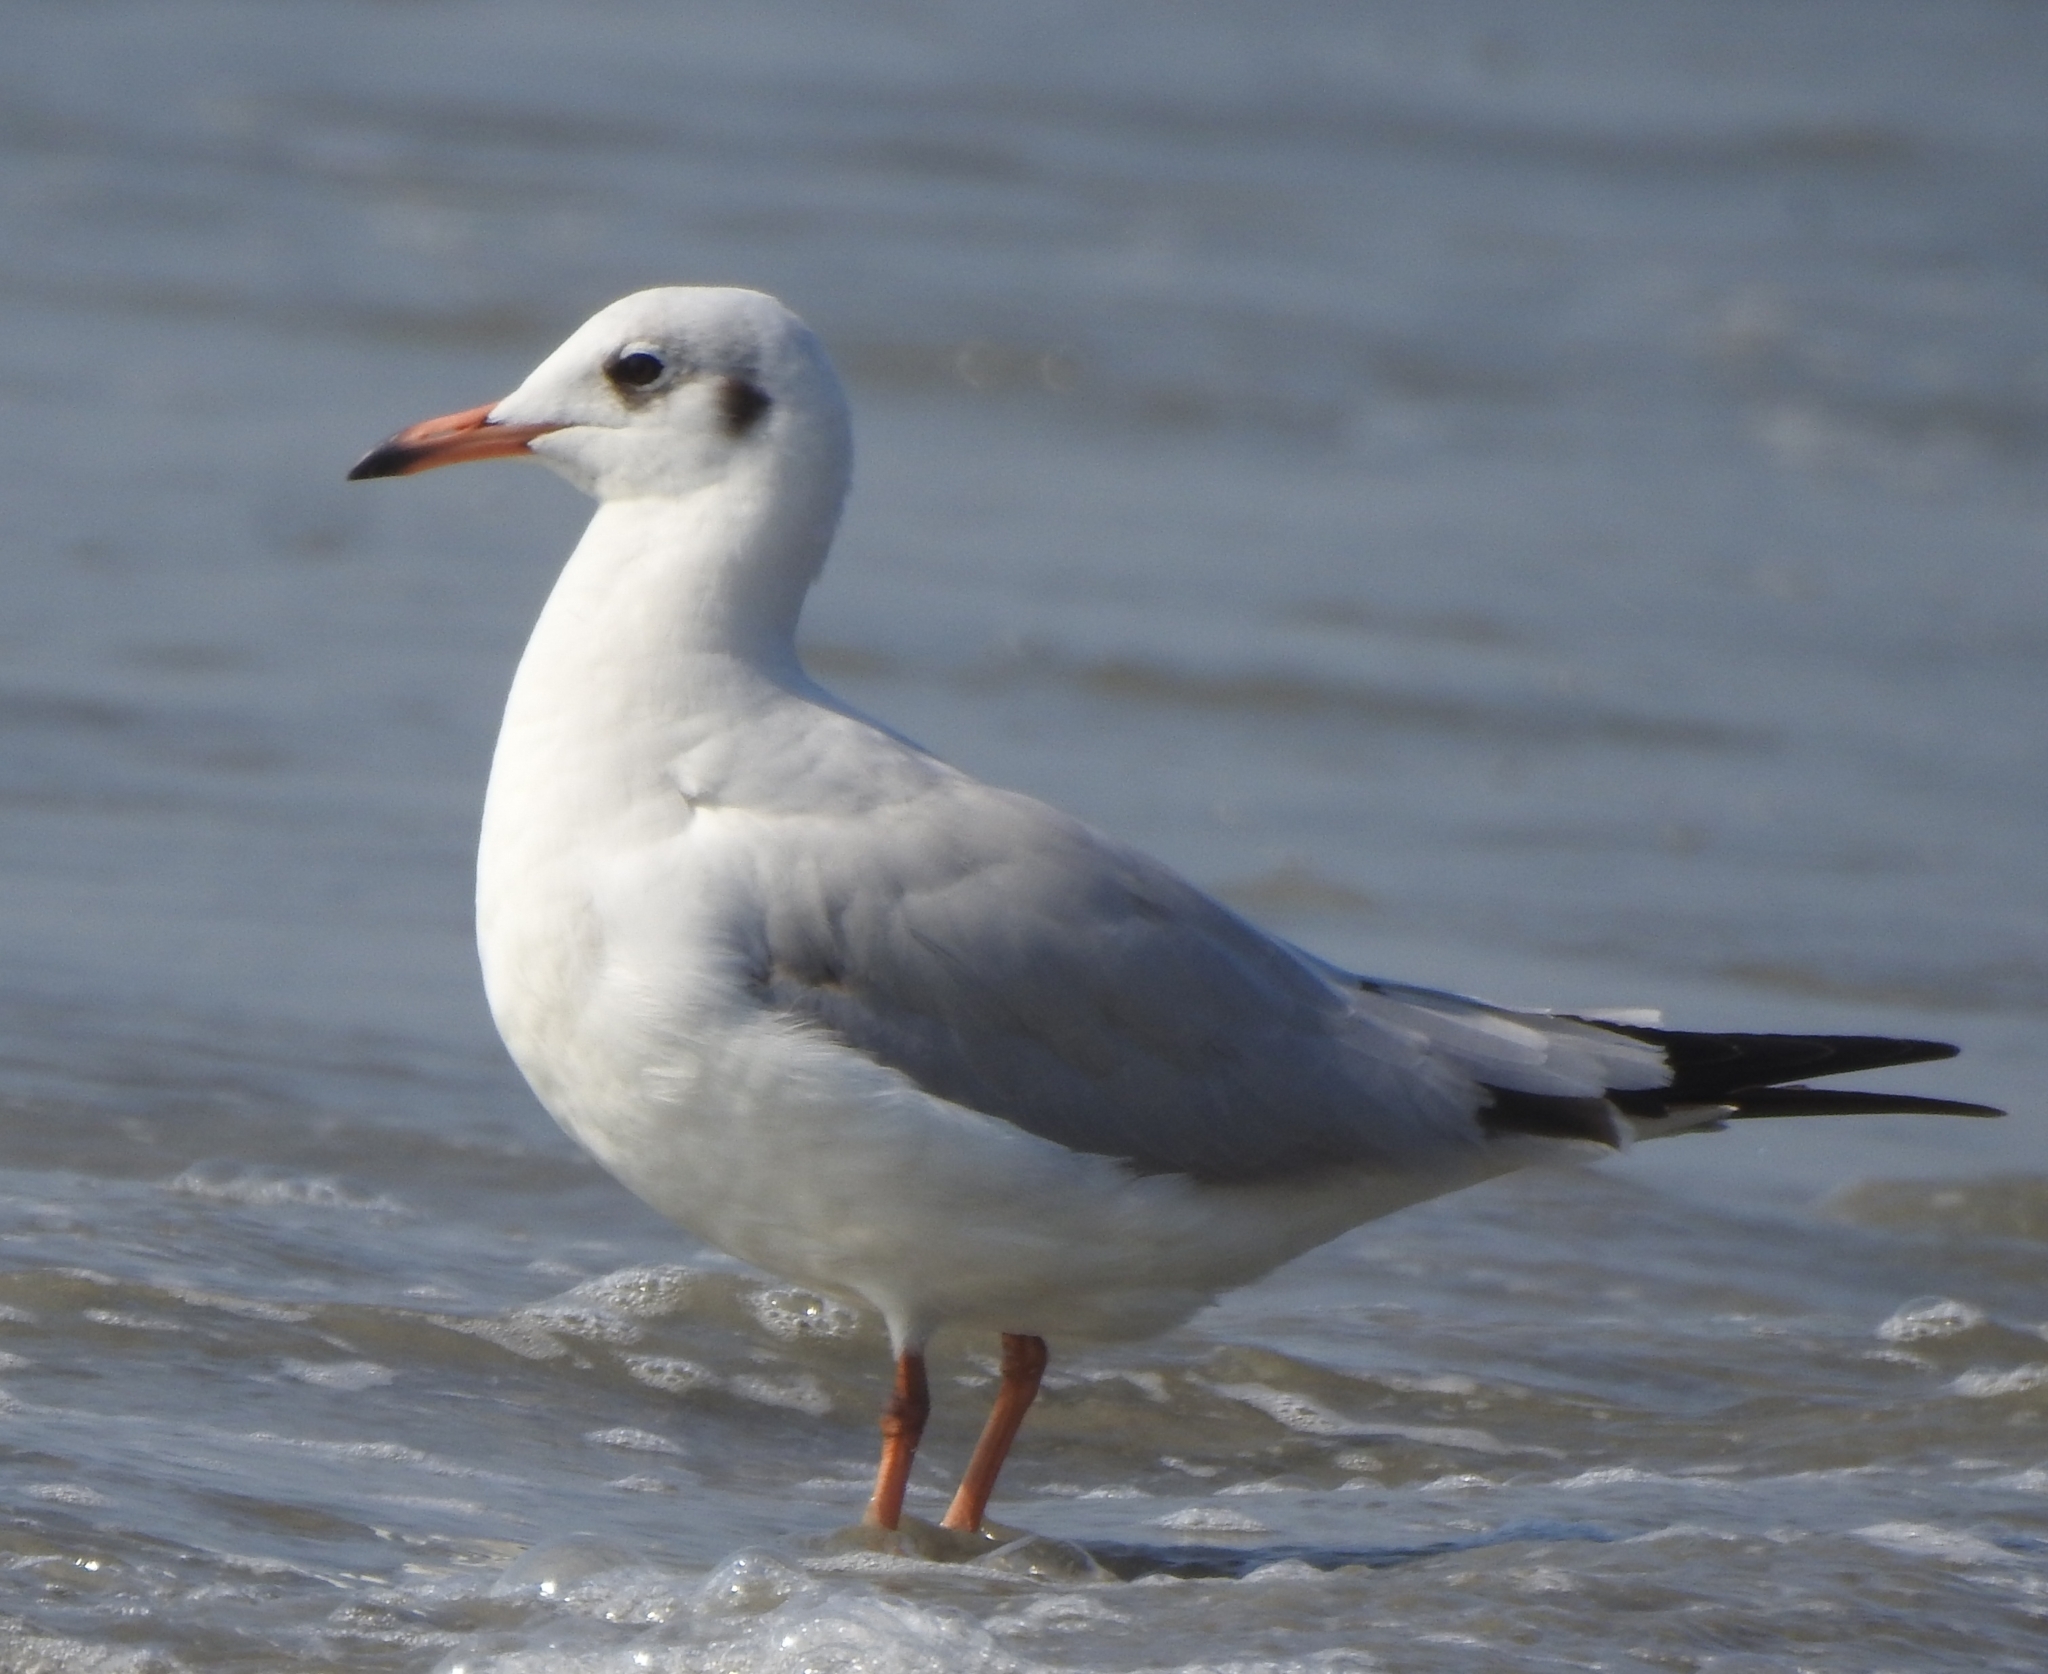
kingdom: Animalia
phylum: Chordata
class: Aves
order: Charadriiformes
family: Laridae
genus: Chroicocephalus
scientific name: Chroicocephalus brunnicephalus
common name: Brown-headed gull
